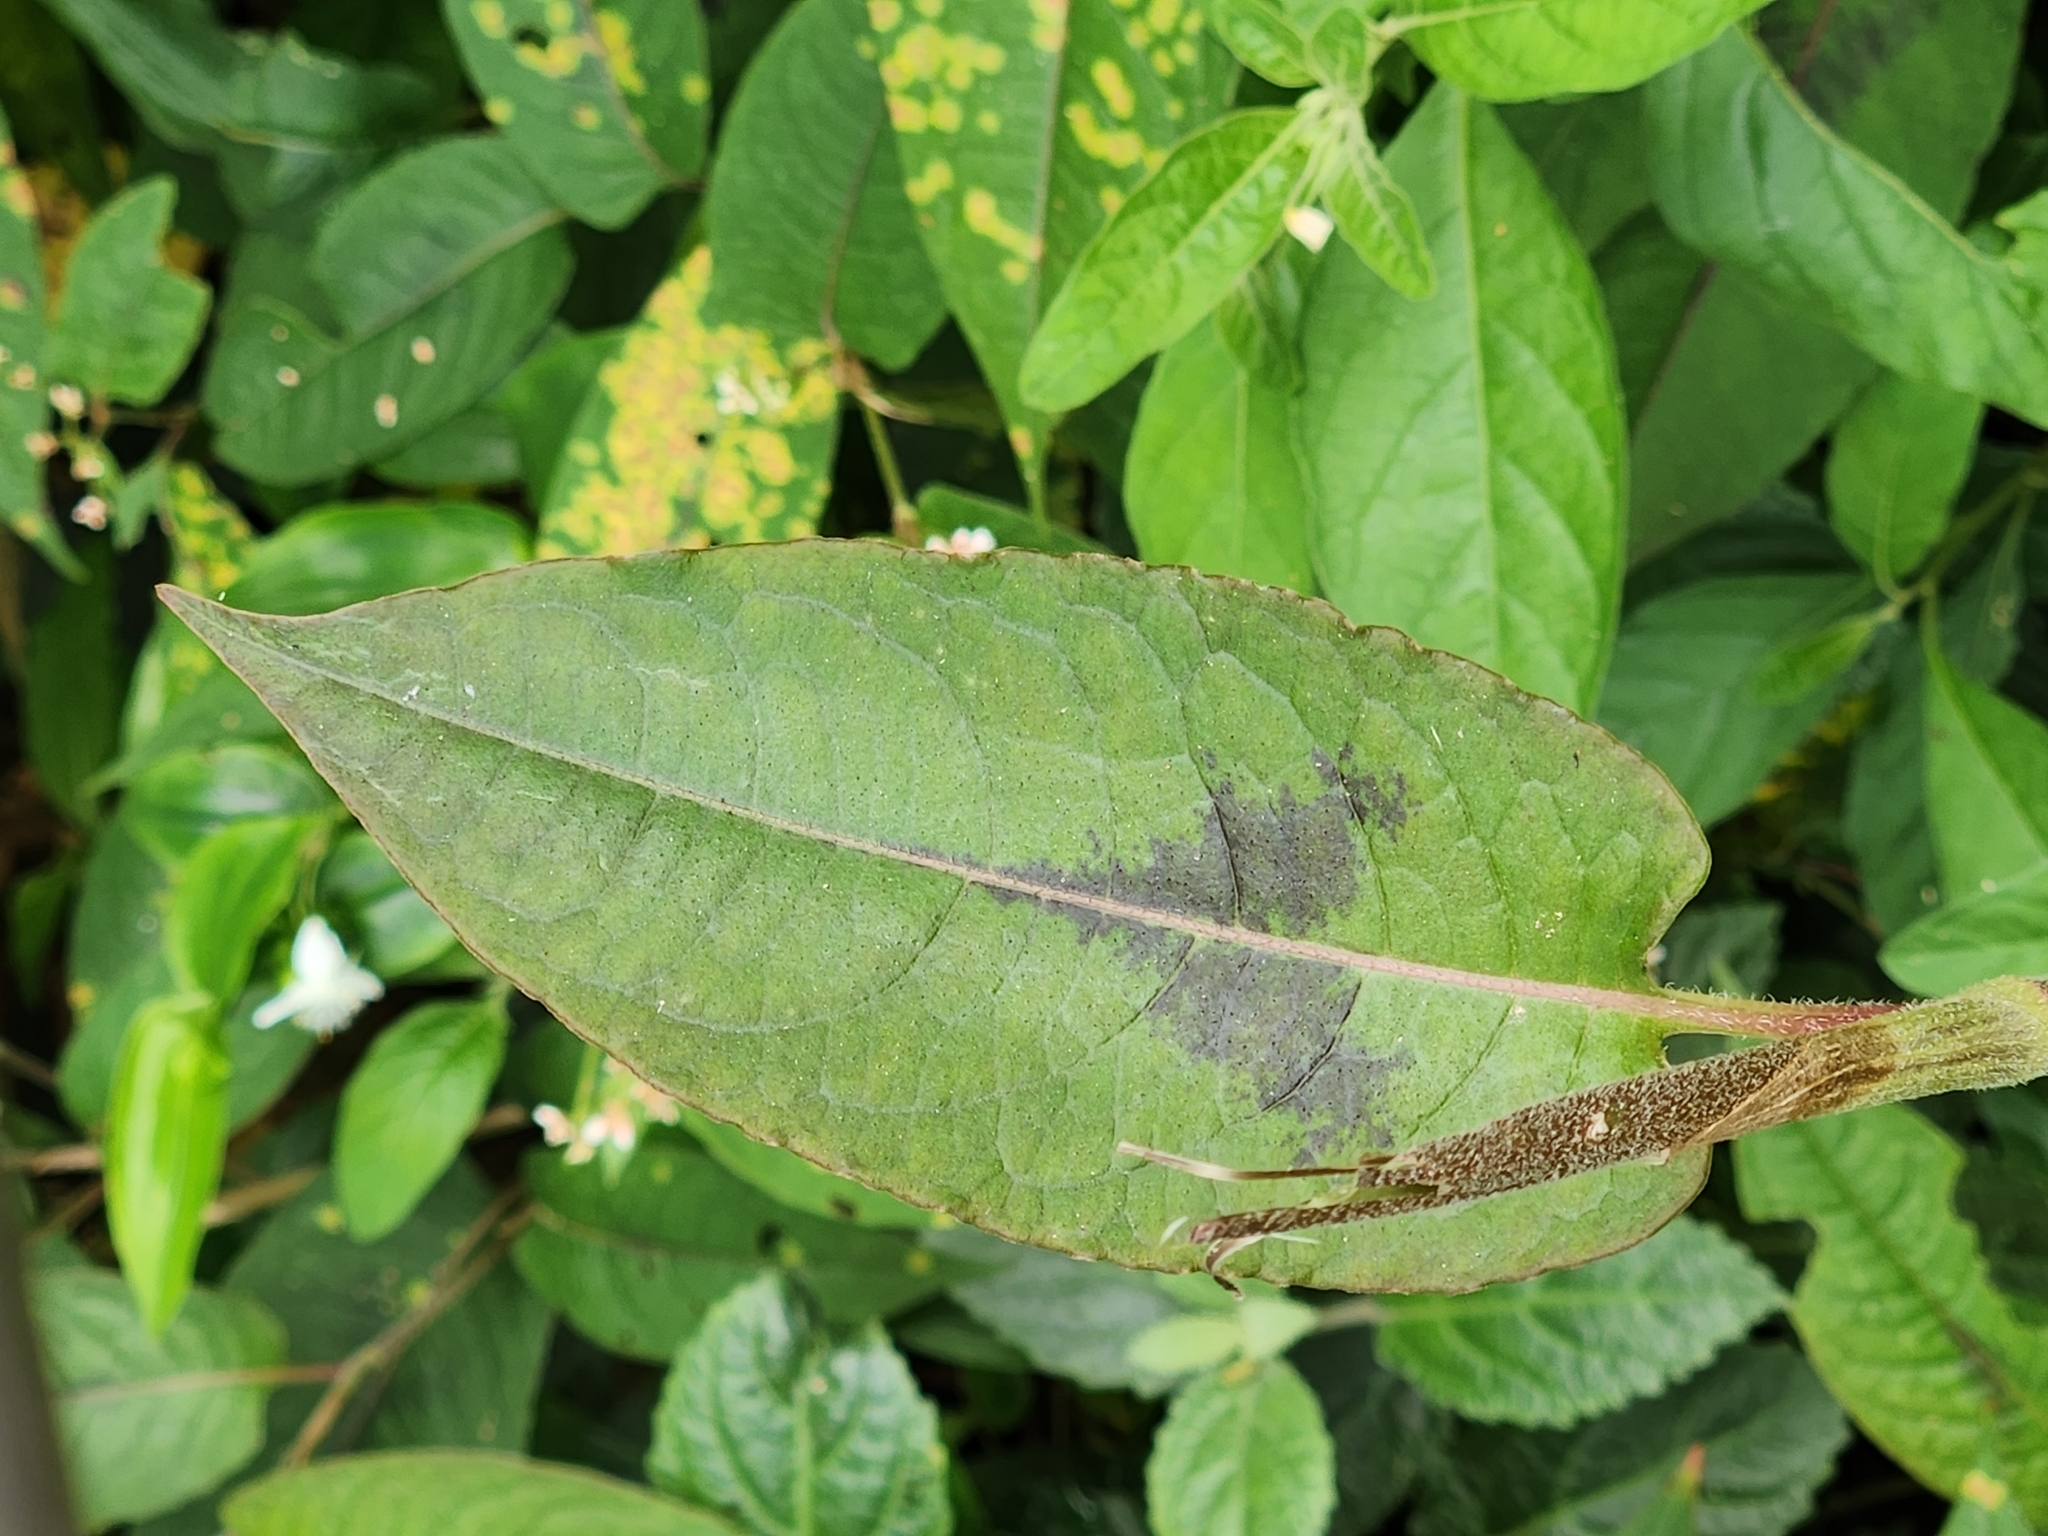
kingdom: Plantae
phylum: Tracheophyta
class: Magnoliopsida
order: Caryophyllales
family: Polygonaceae
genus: Persicaria
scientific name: Persicaria chinensis
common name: Chinese knotweed
